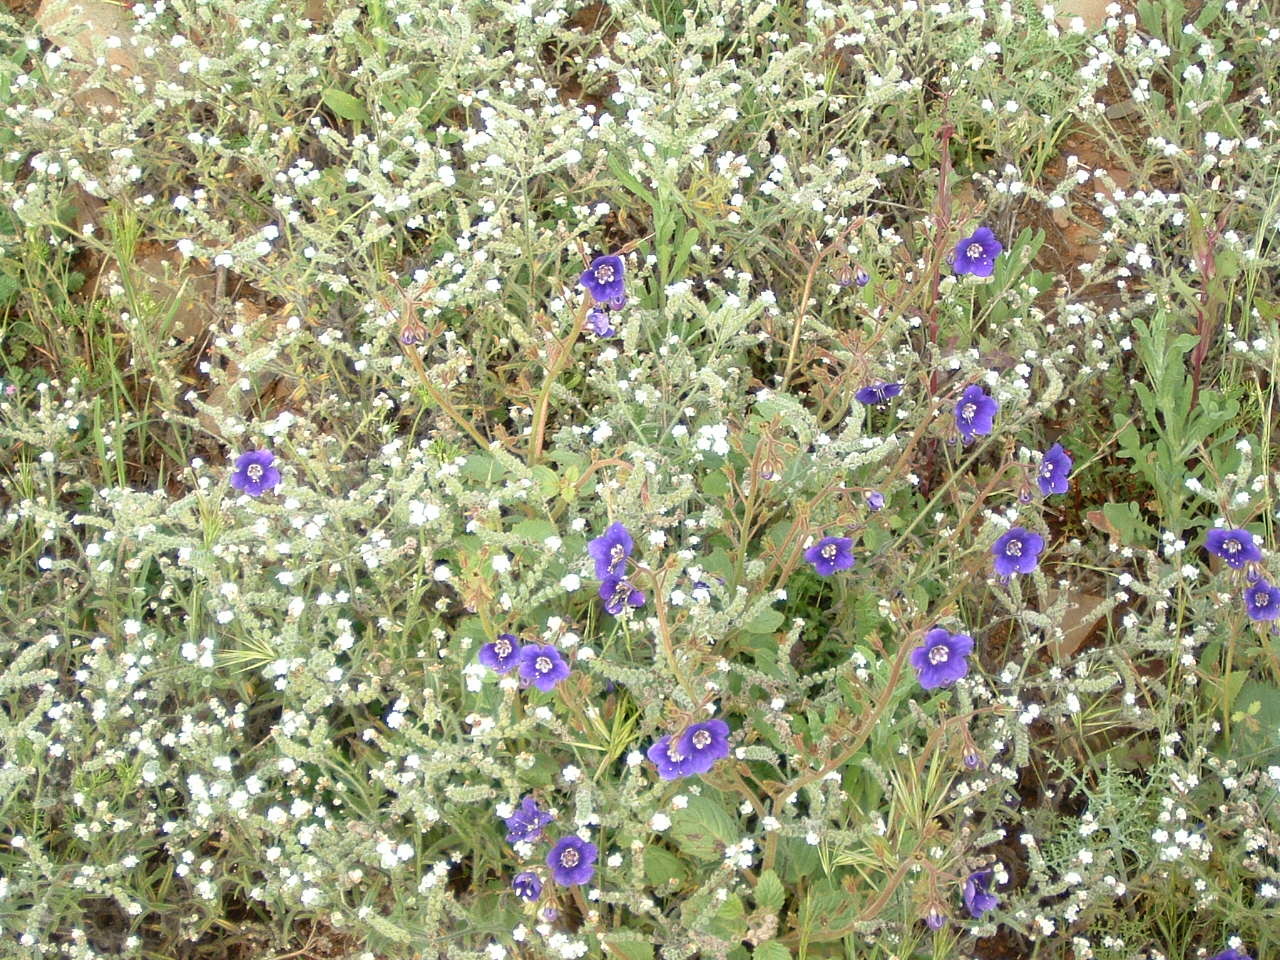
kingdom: Plantae
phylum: Tracheophyta
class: Magnoliopsida
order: Boraginales
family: Hydrophyllaceae
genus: Phacelia
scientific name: Phacelia parryi
